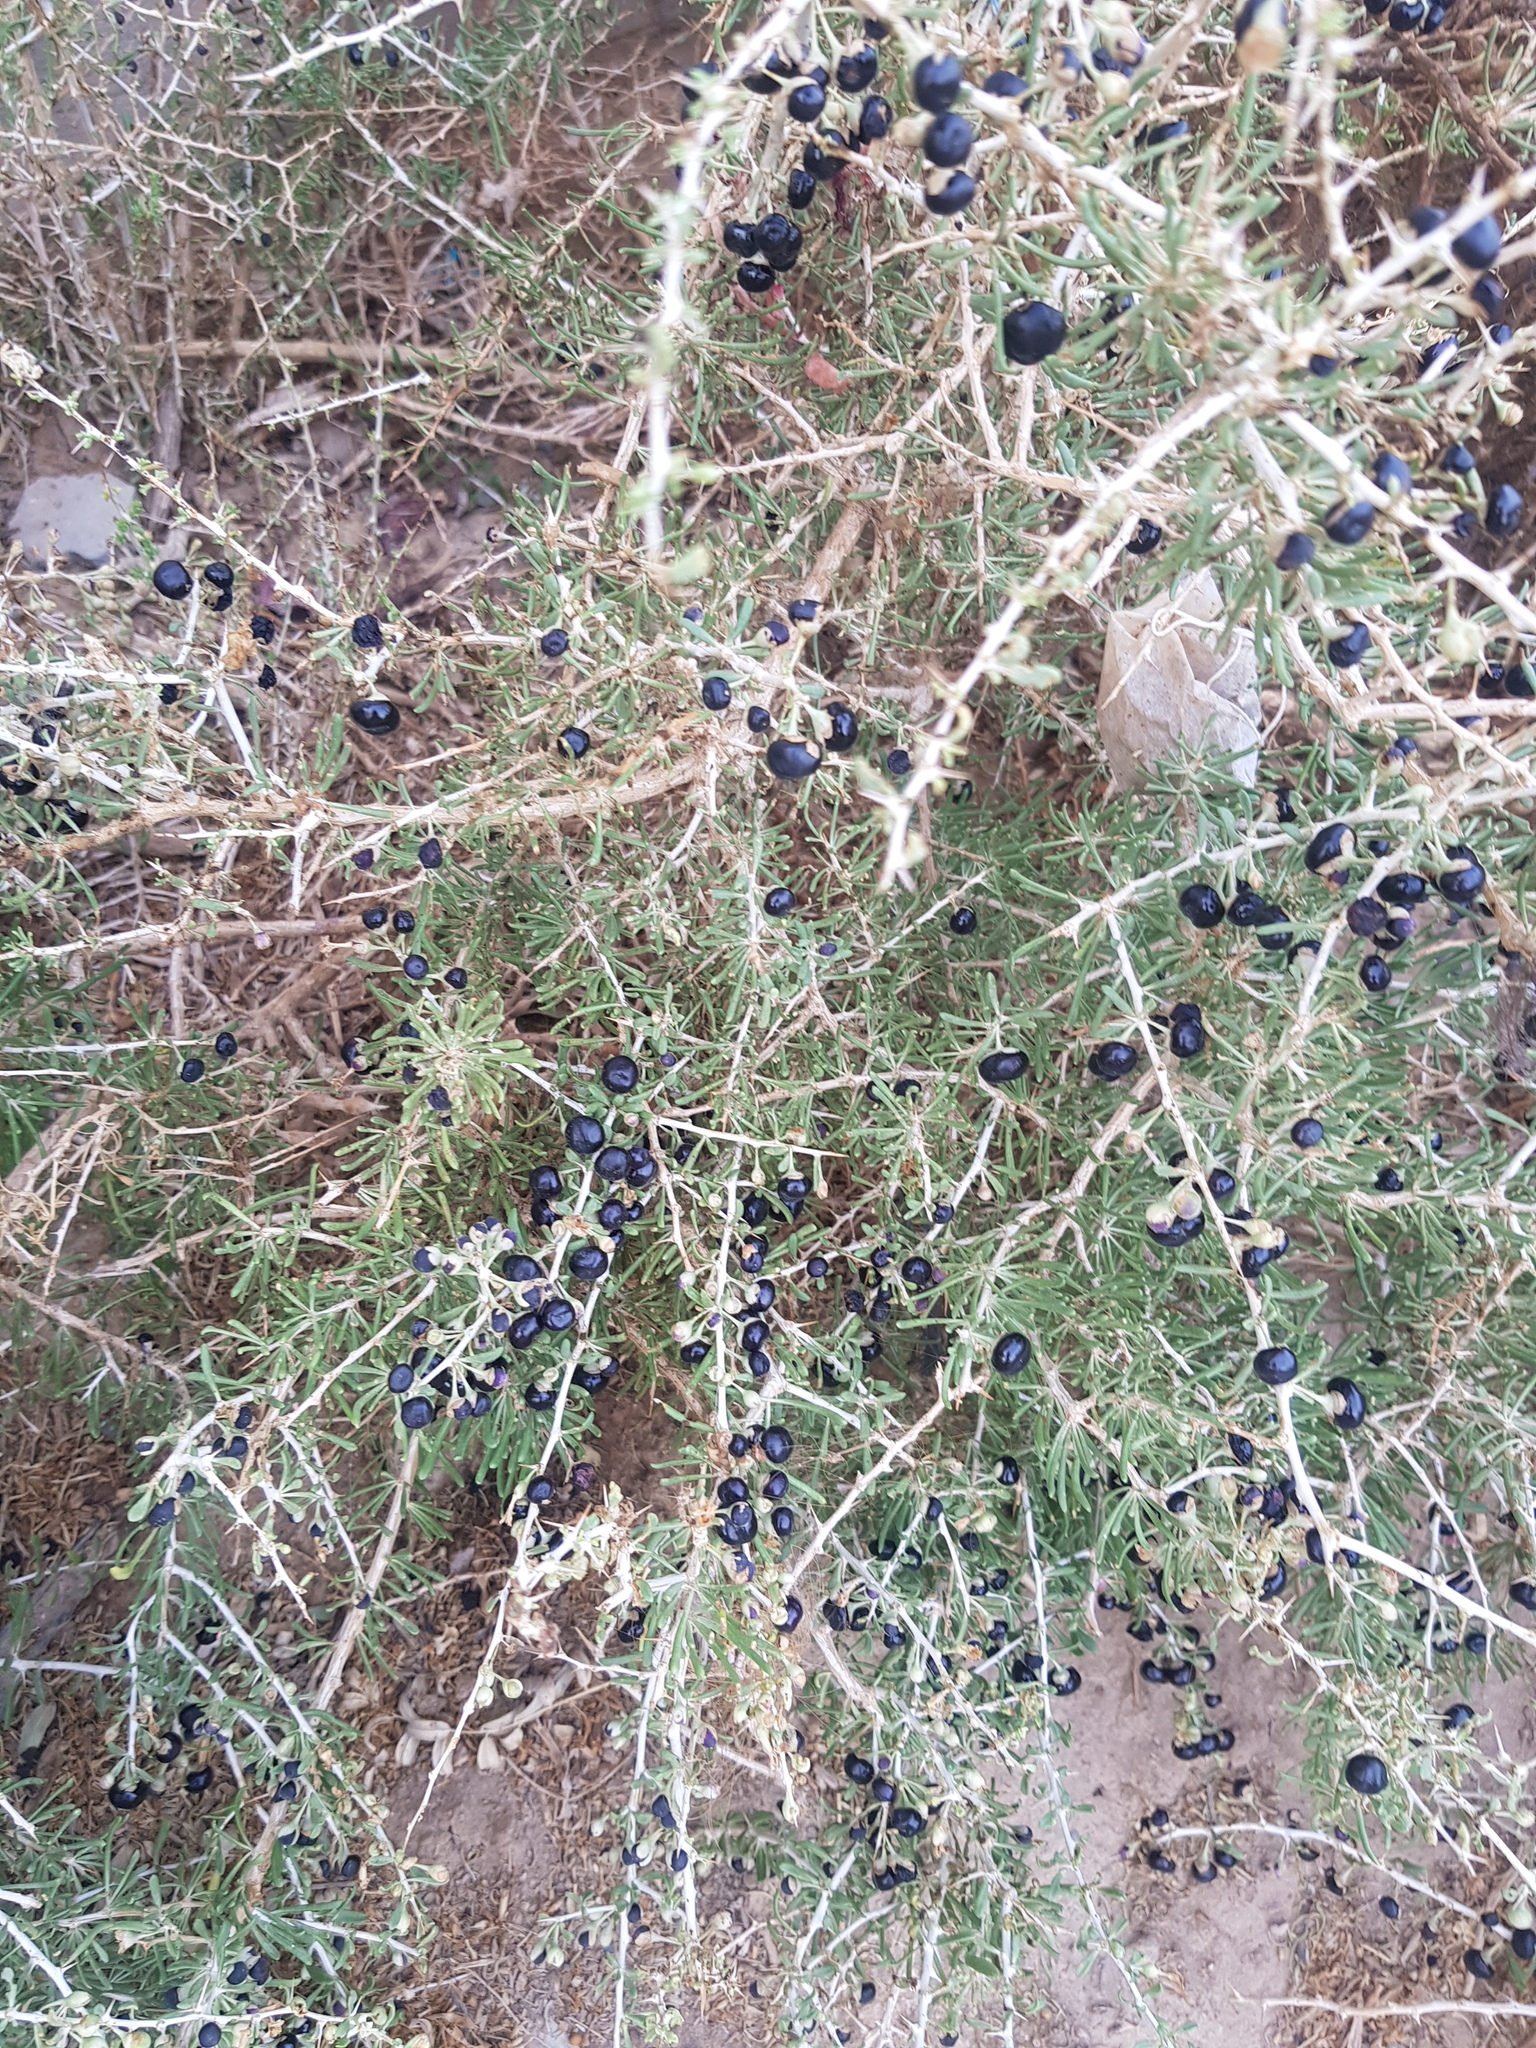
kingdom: Plantae
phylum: Tracheophyta
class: Magnoliopsida
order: Solanales
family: Solanaceae
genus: Lycium
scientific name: Lycium ruthenicum
